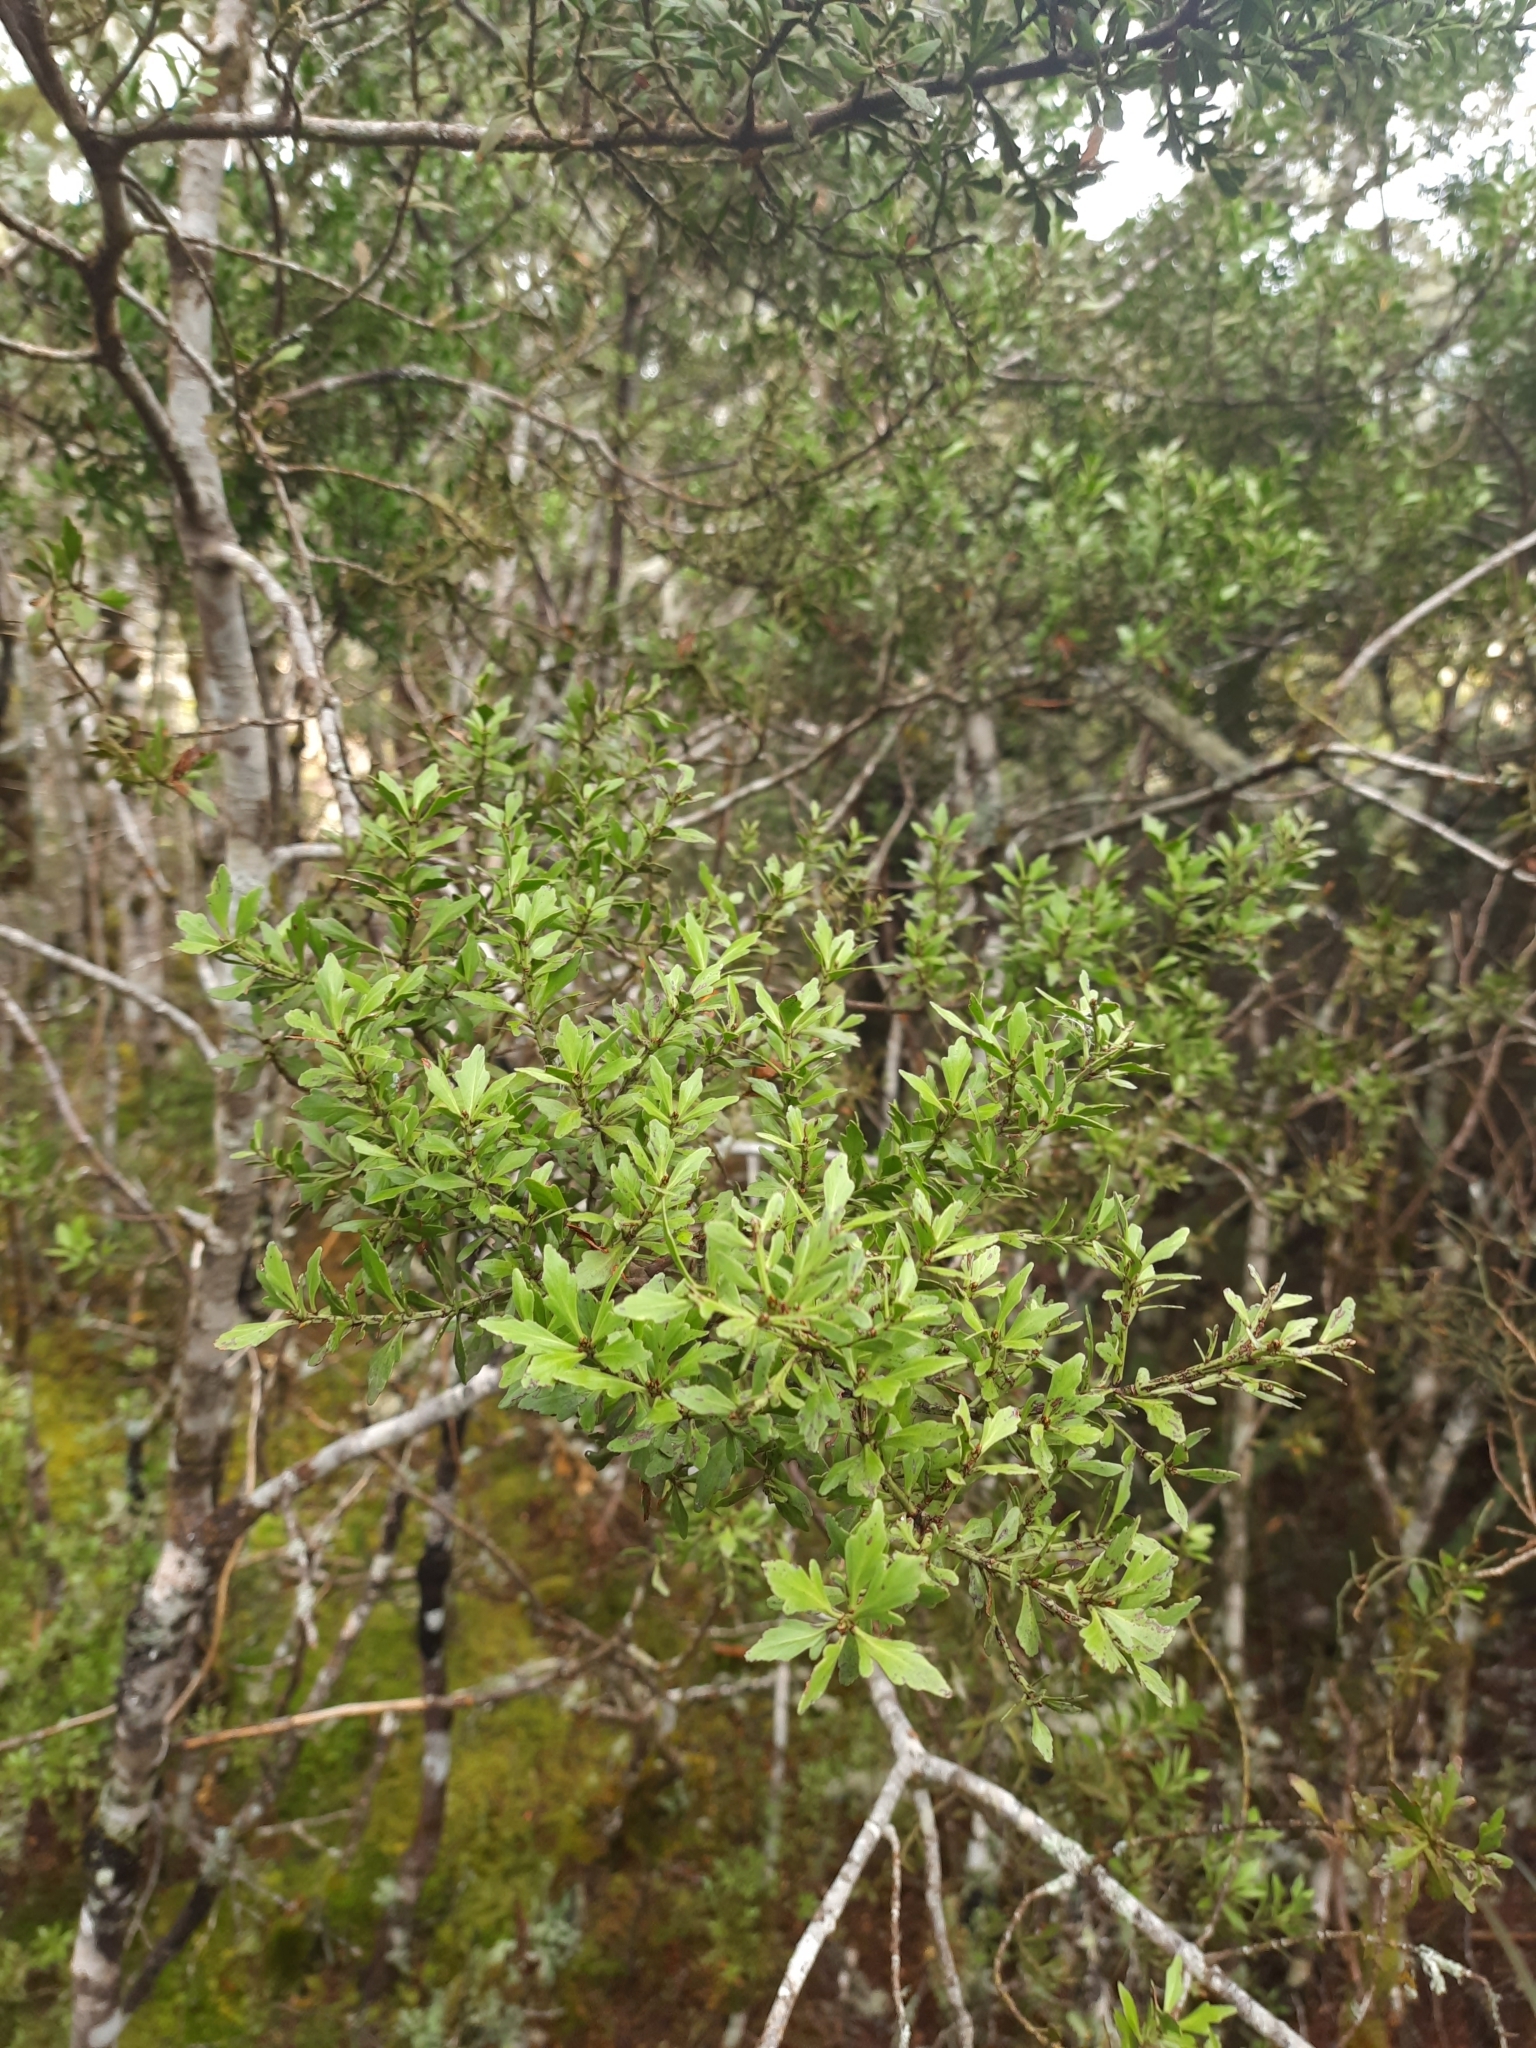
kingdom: Plantae
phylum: Tracheophyta
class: Pinopsida
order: Pinales
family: Phyllocladaceae
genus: Phyllocladus
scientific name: Phyllocladus trichomanoides
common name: Celery pine
